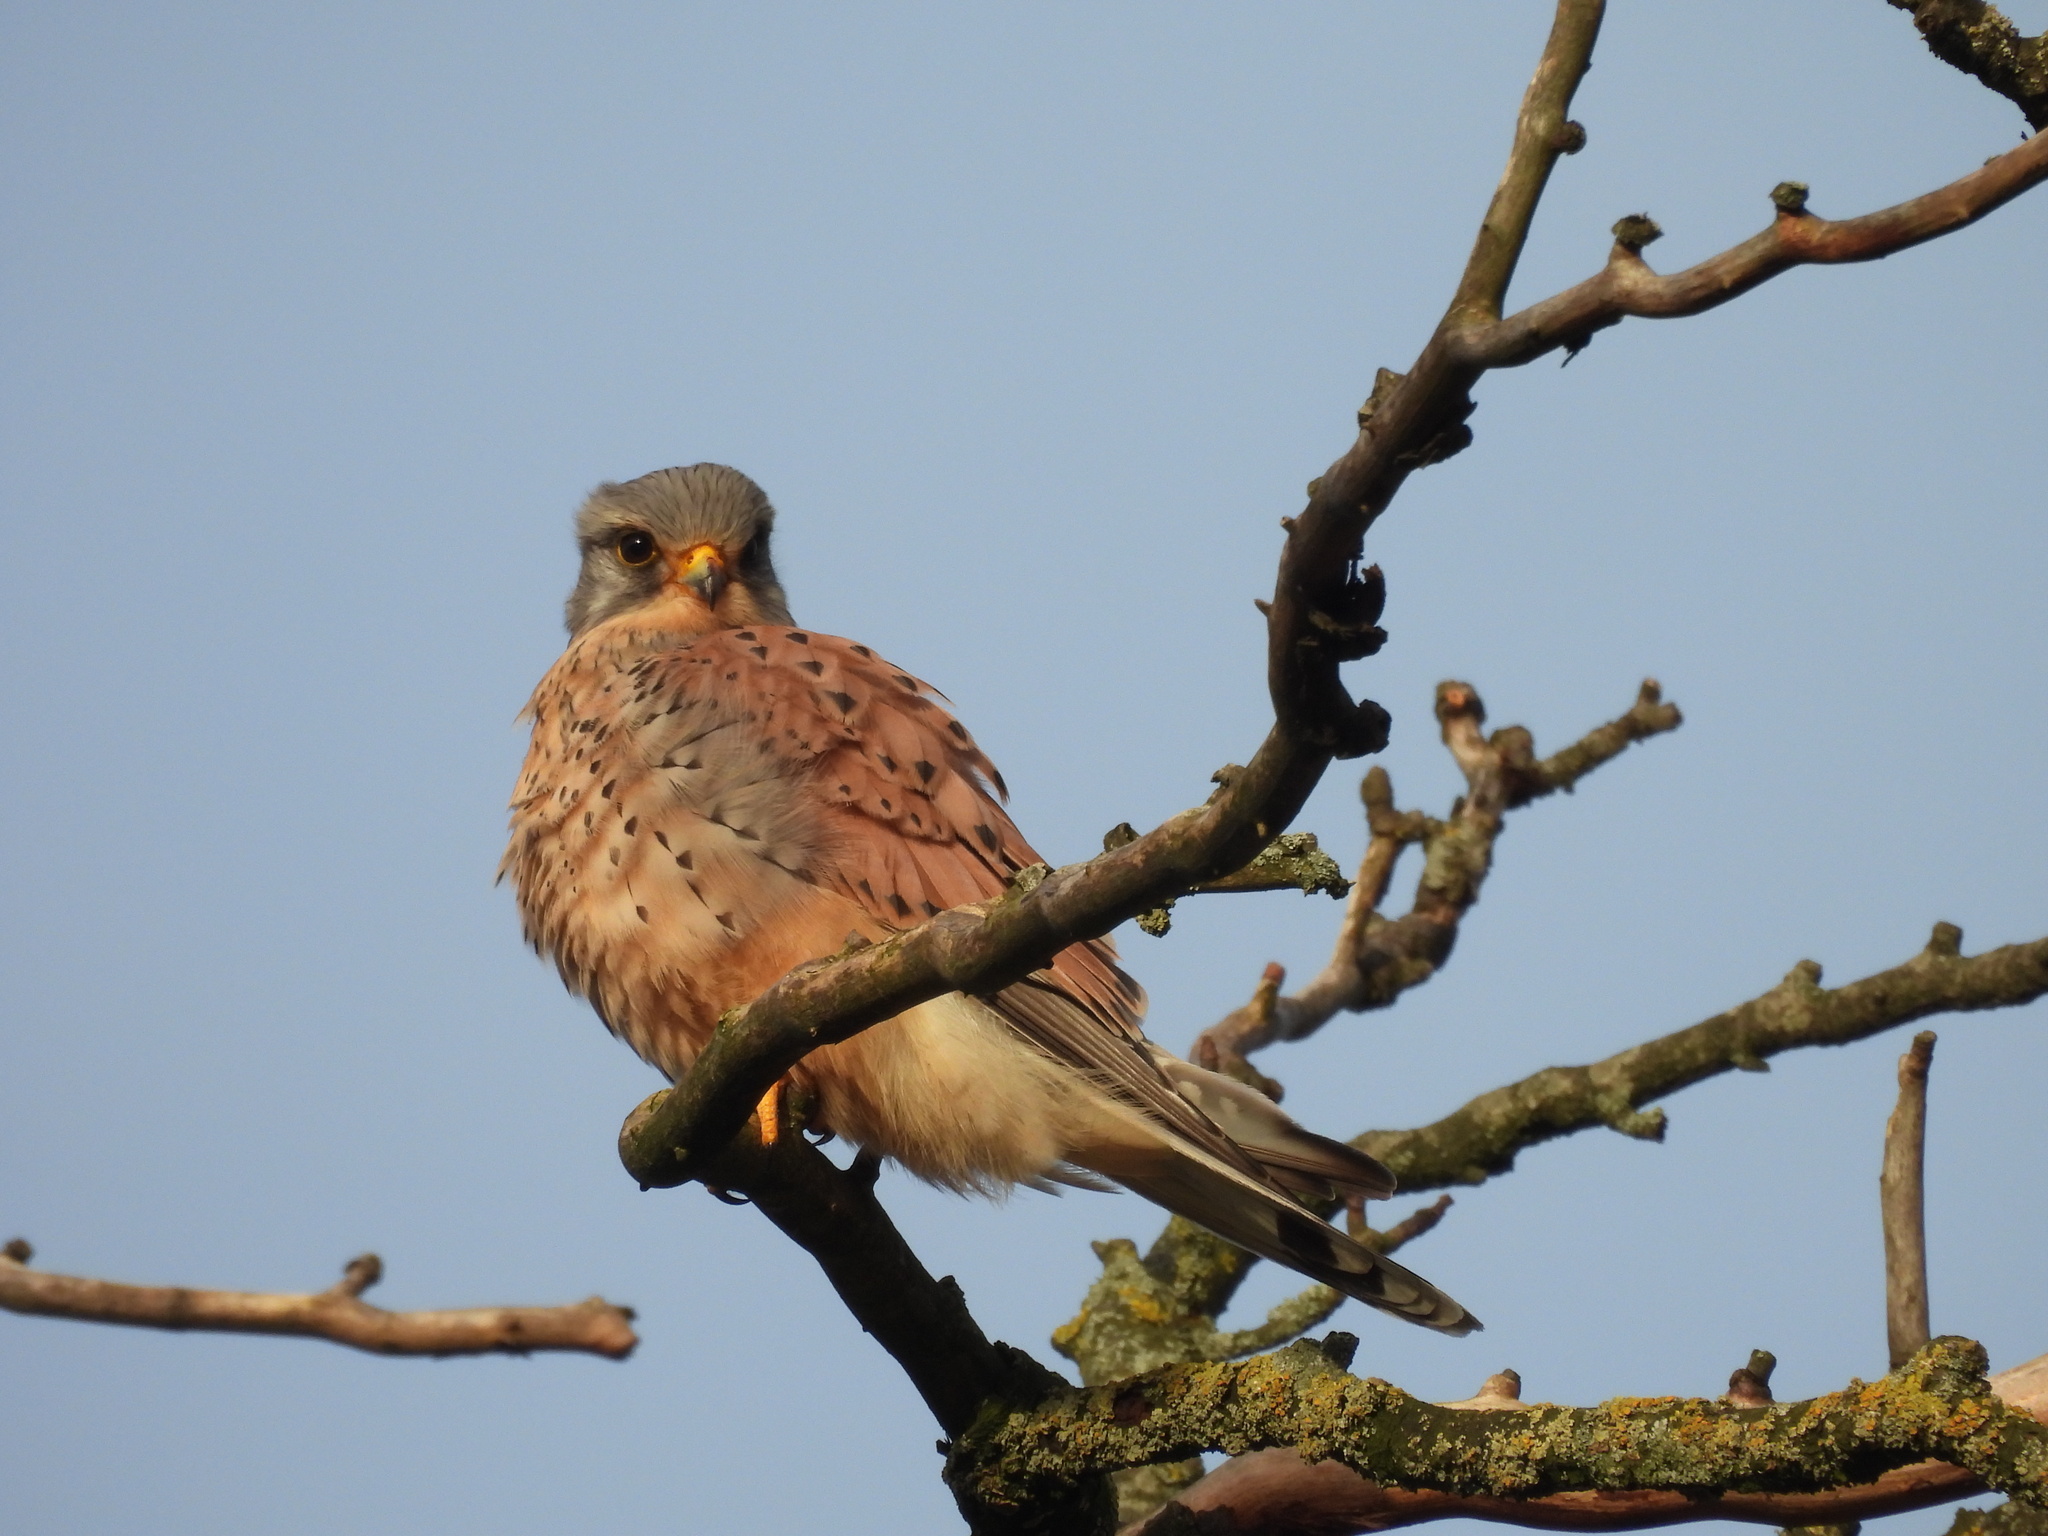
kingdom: Animalia
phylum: Chordata
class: Aves
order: Falconiformes
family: Falconidae
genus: Falco
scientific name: Falco tinnunculus
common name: Common kestrel
